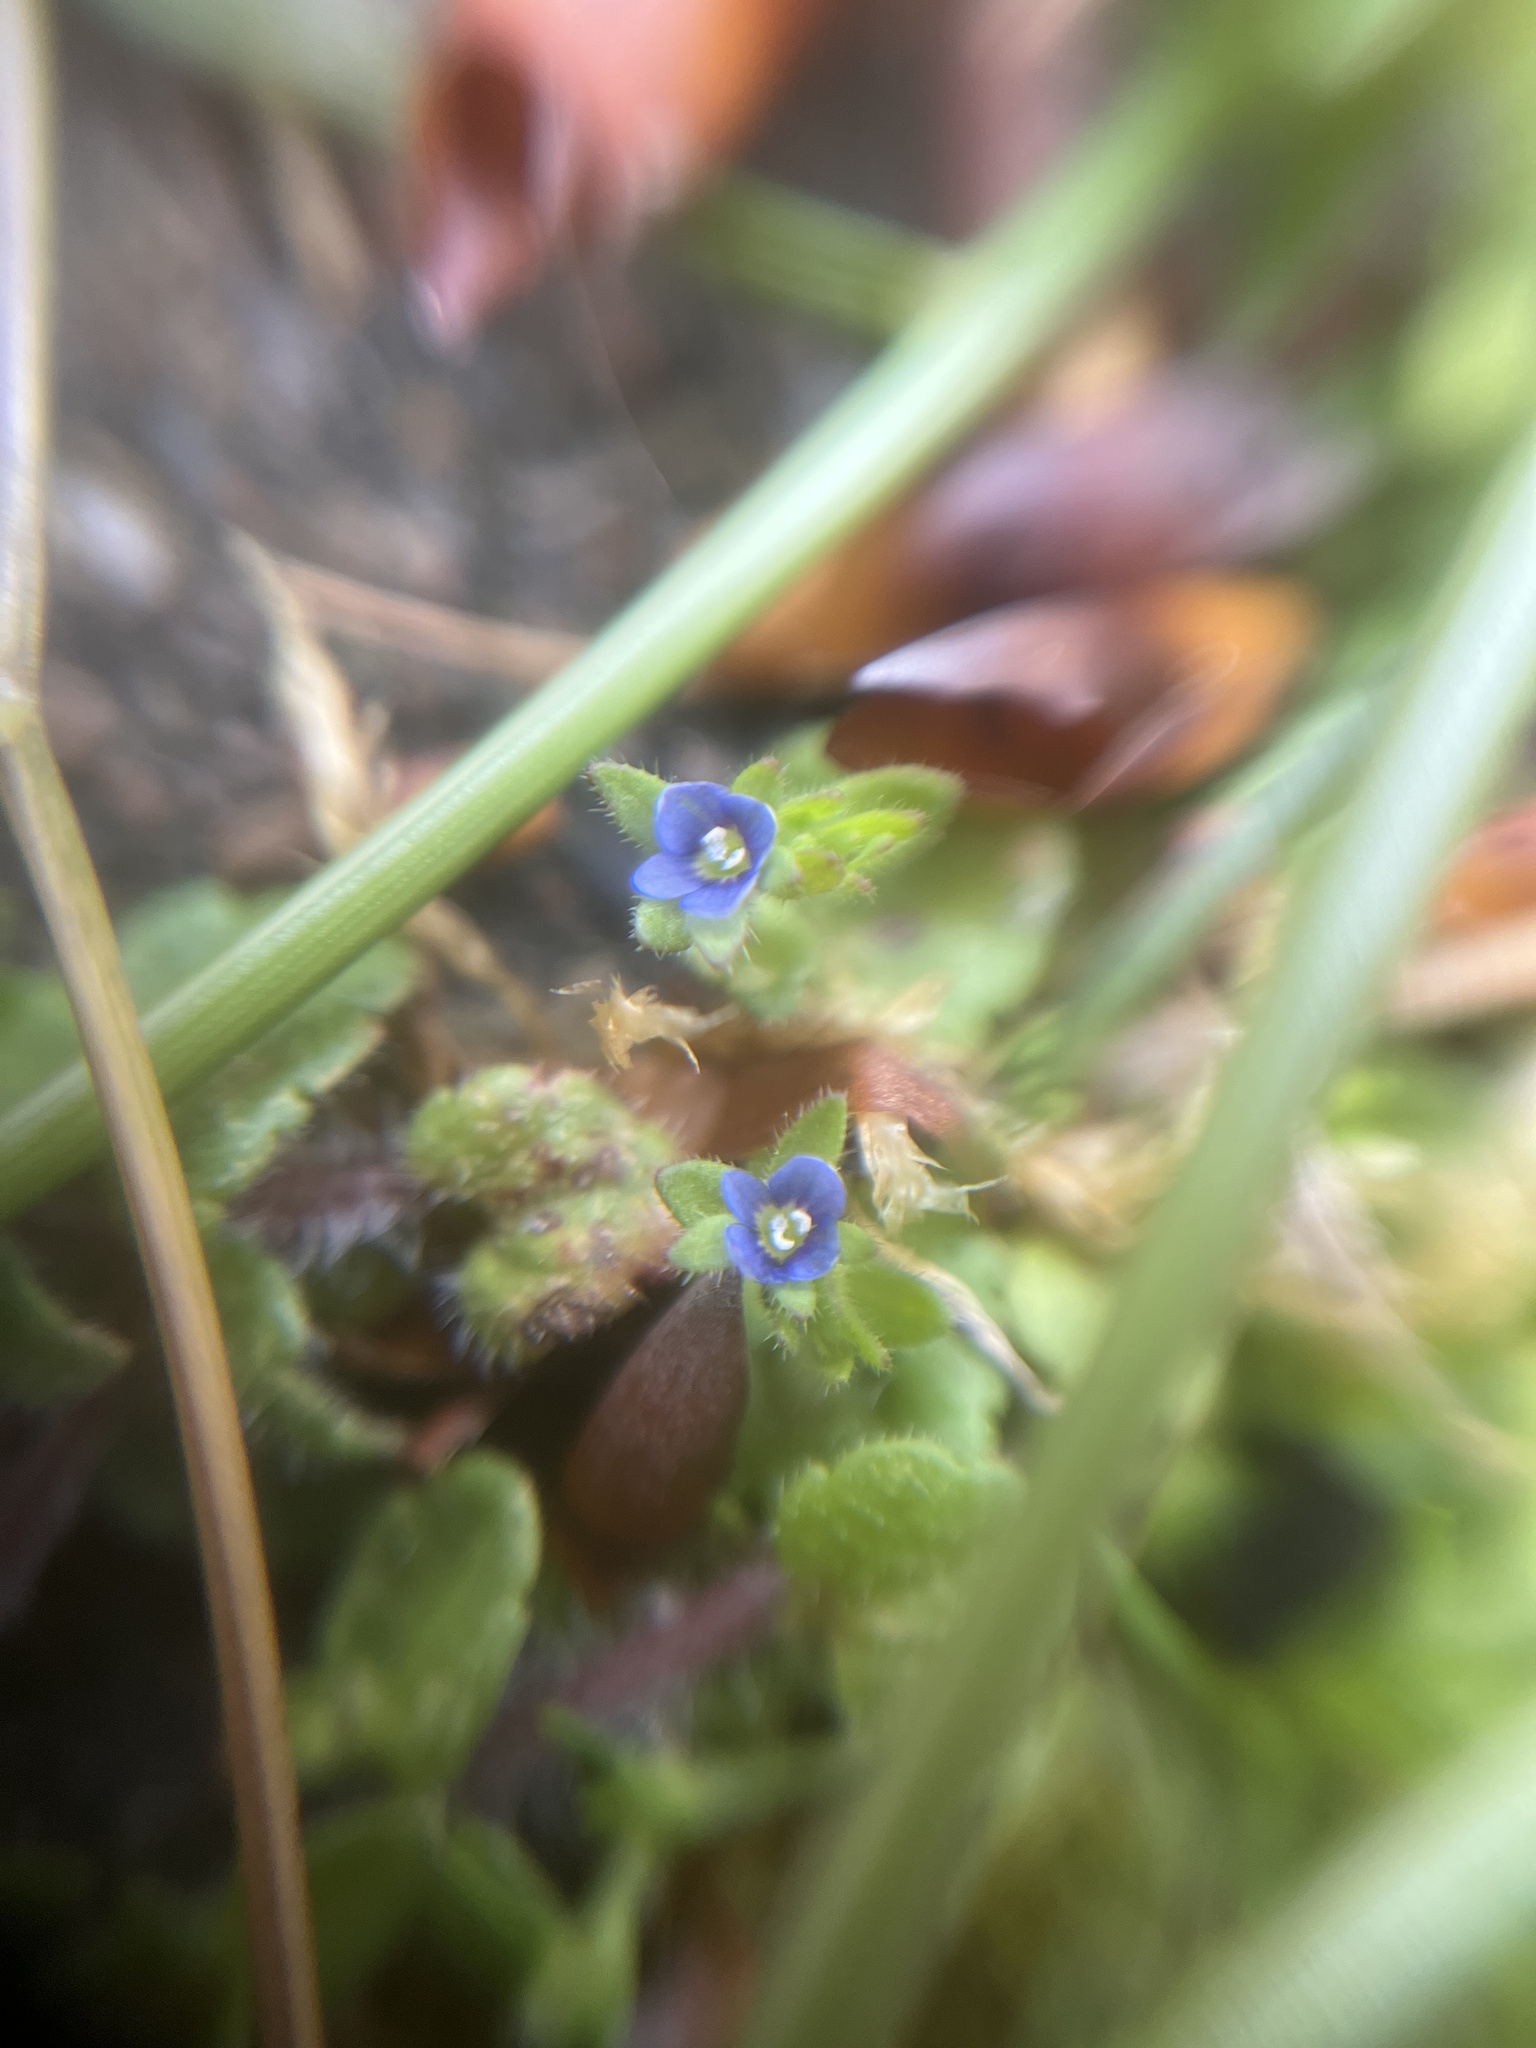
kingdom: Plantae
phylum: Tracheophyta
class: Magnoliopsida
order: Lamiales
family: Plantaginaceae
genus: Veronica
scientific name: Veronica arvensis
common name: Corn speedwell
